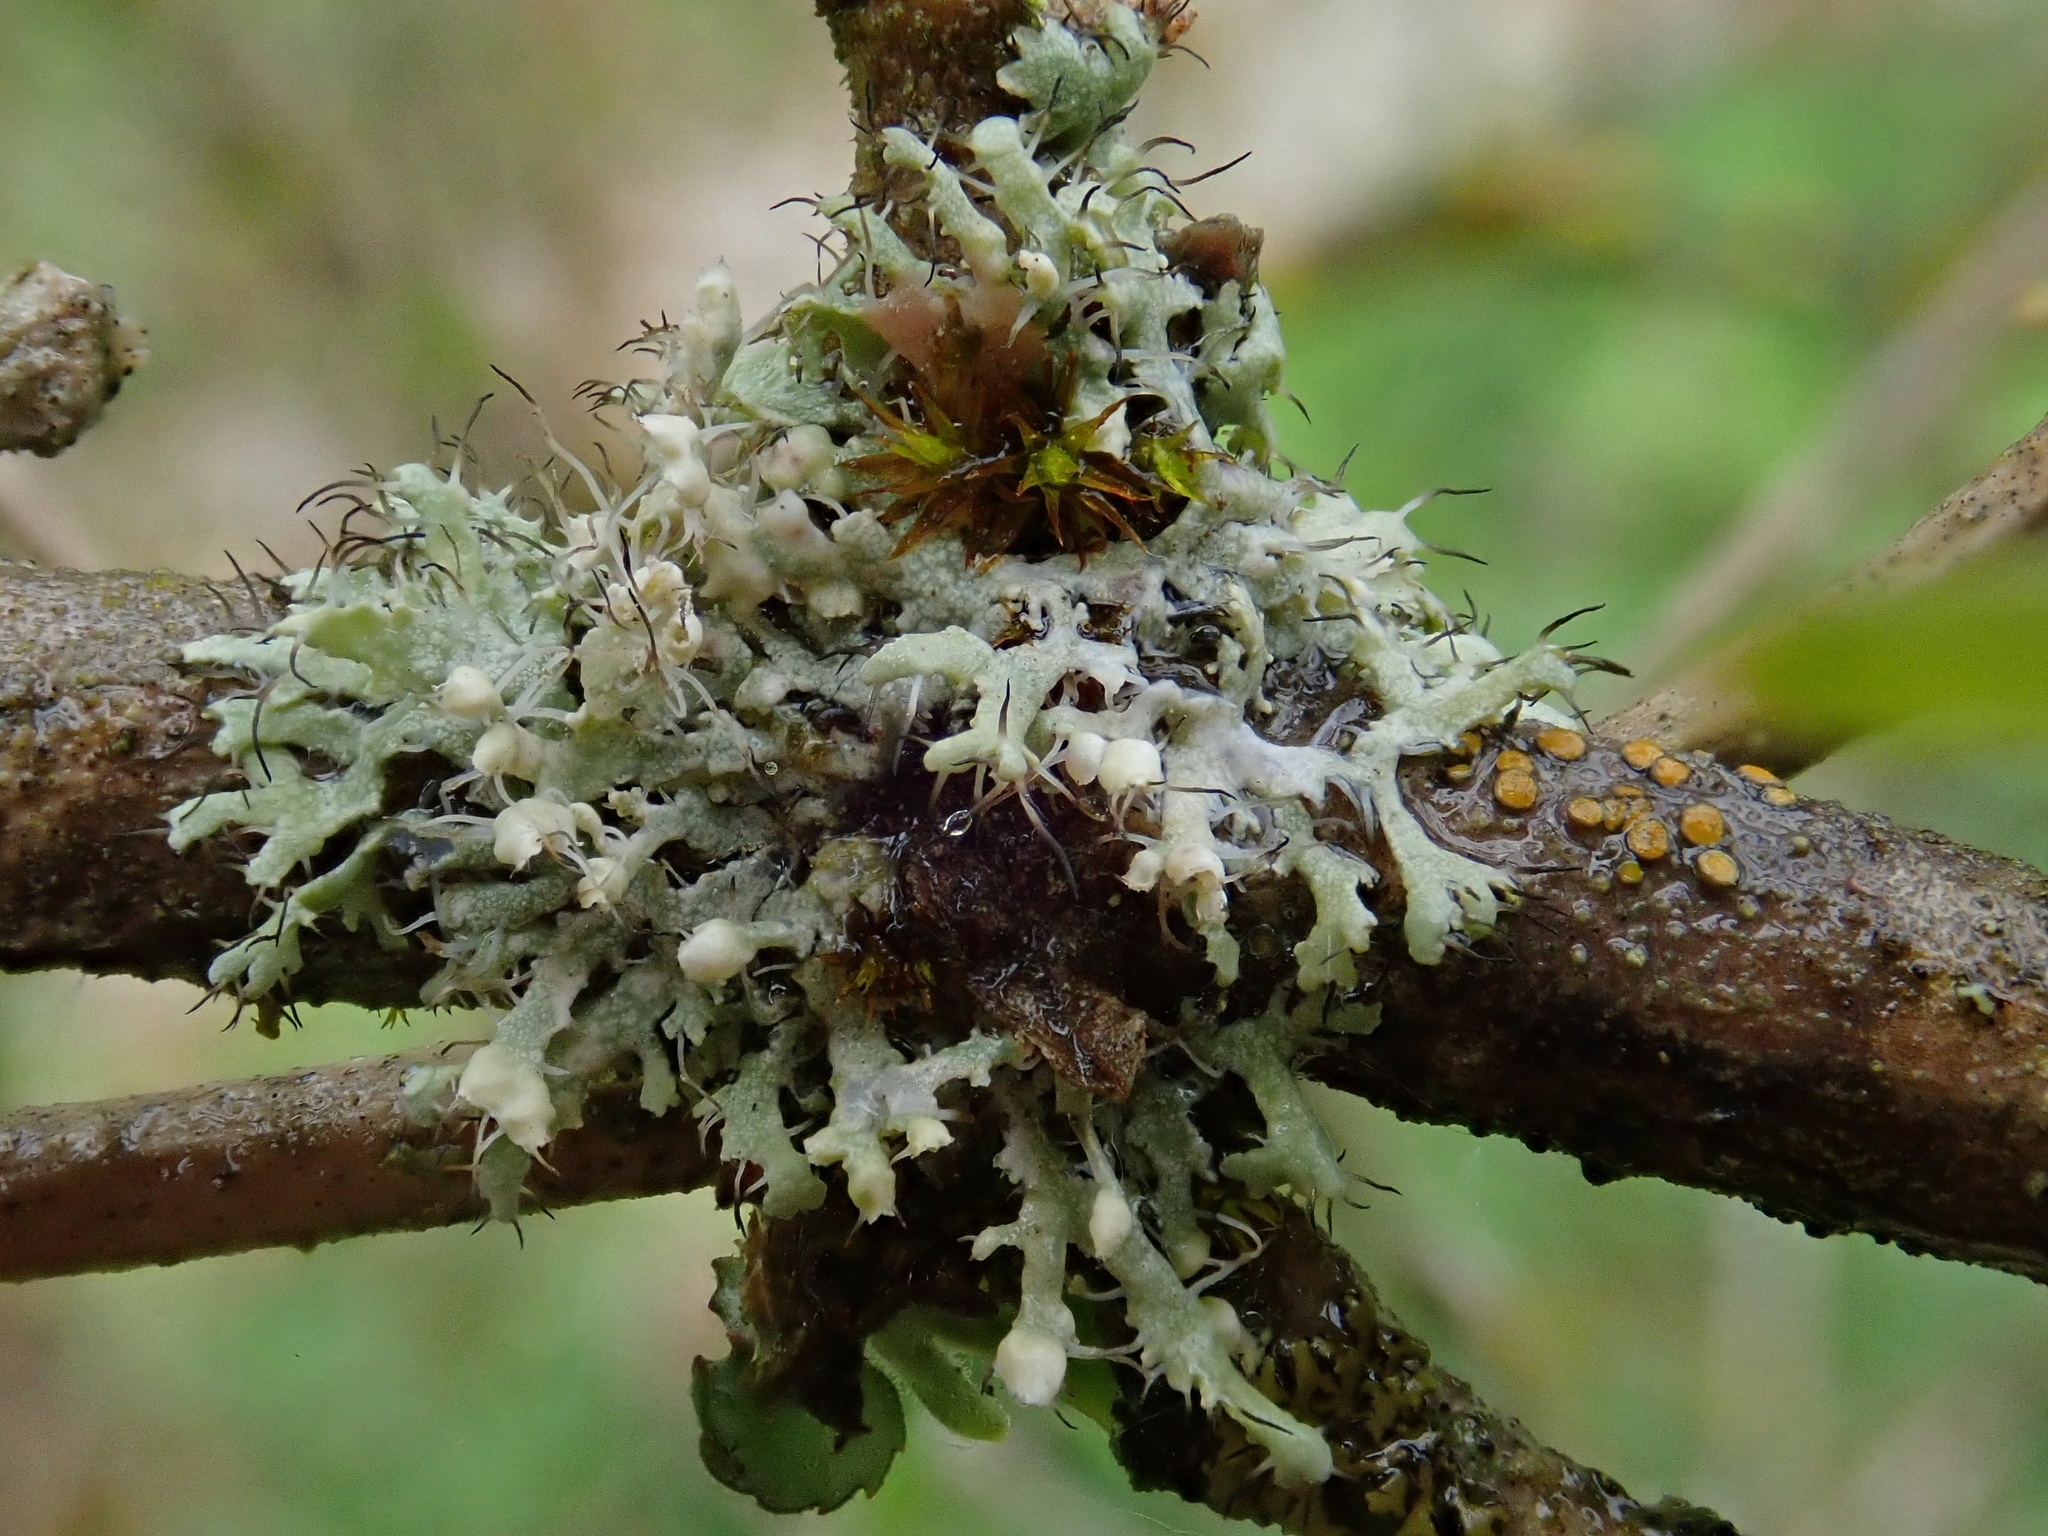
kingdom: Fungi
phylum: Ascomycota
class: Lecanoromycetes
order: Caliciales
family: Physciaceae
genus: Physcia
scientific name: Physcia adscendens
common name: Hooded rosette lichen
